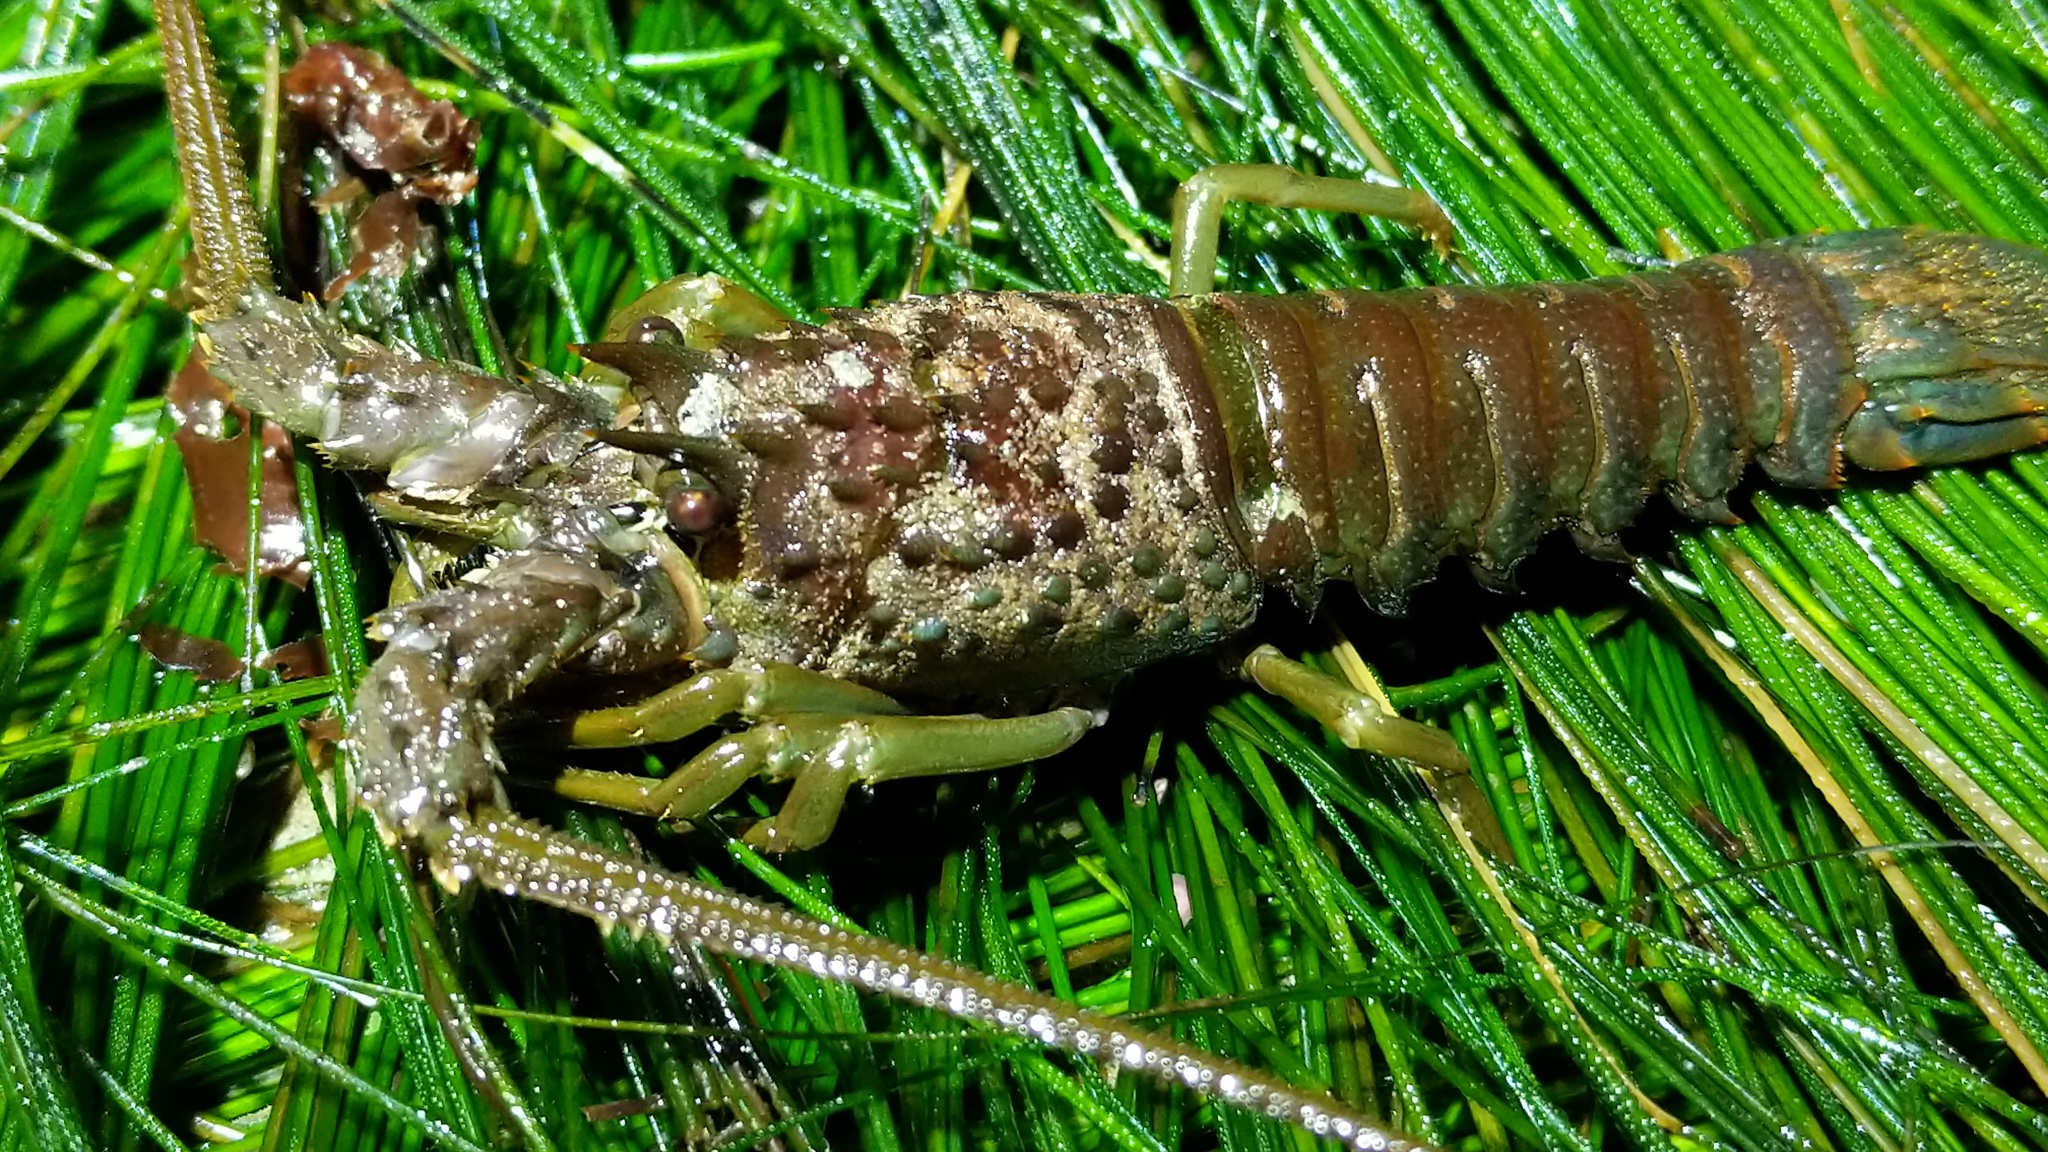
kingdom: Animalia
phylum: Arthropoda
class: Malacostraca
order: Decapoda
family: Palinuridae
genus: Panulirus
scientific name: Panulirus interruptus
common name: California spiny lobster
